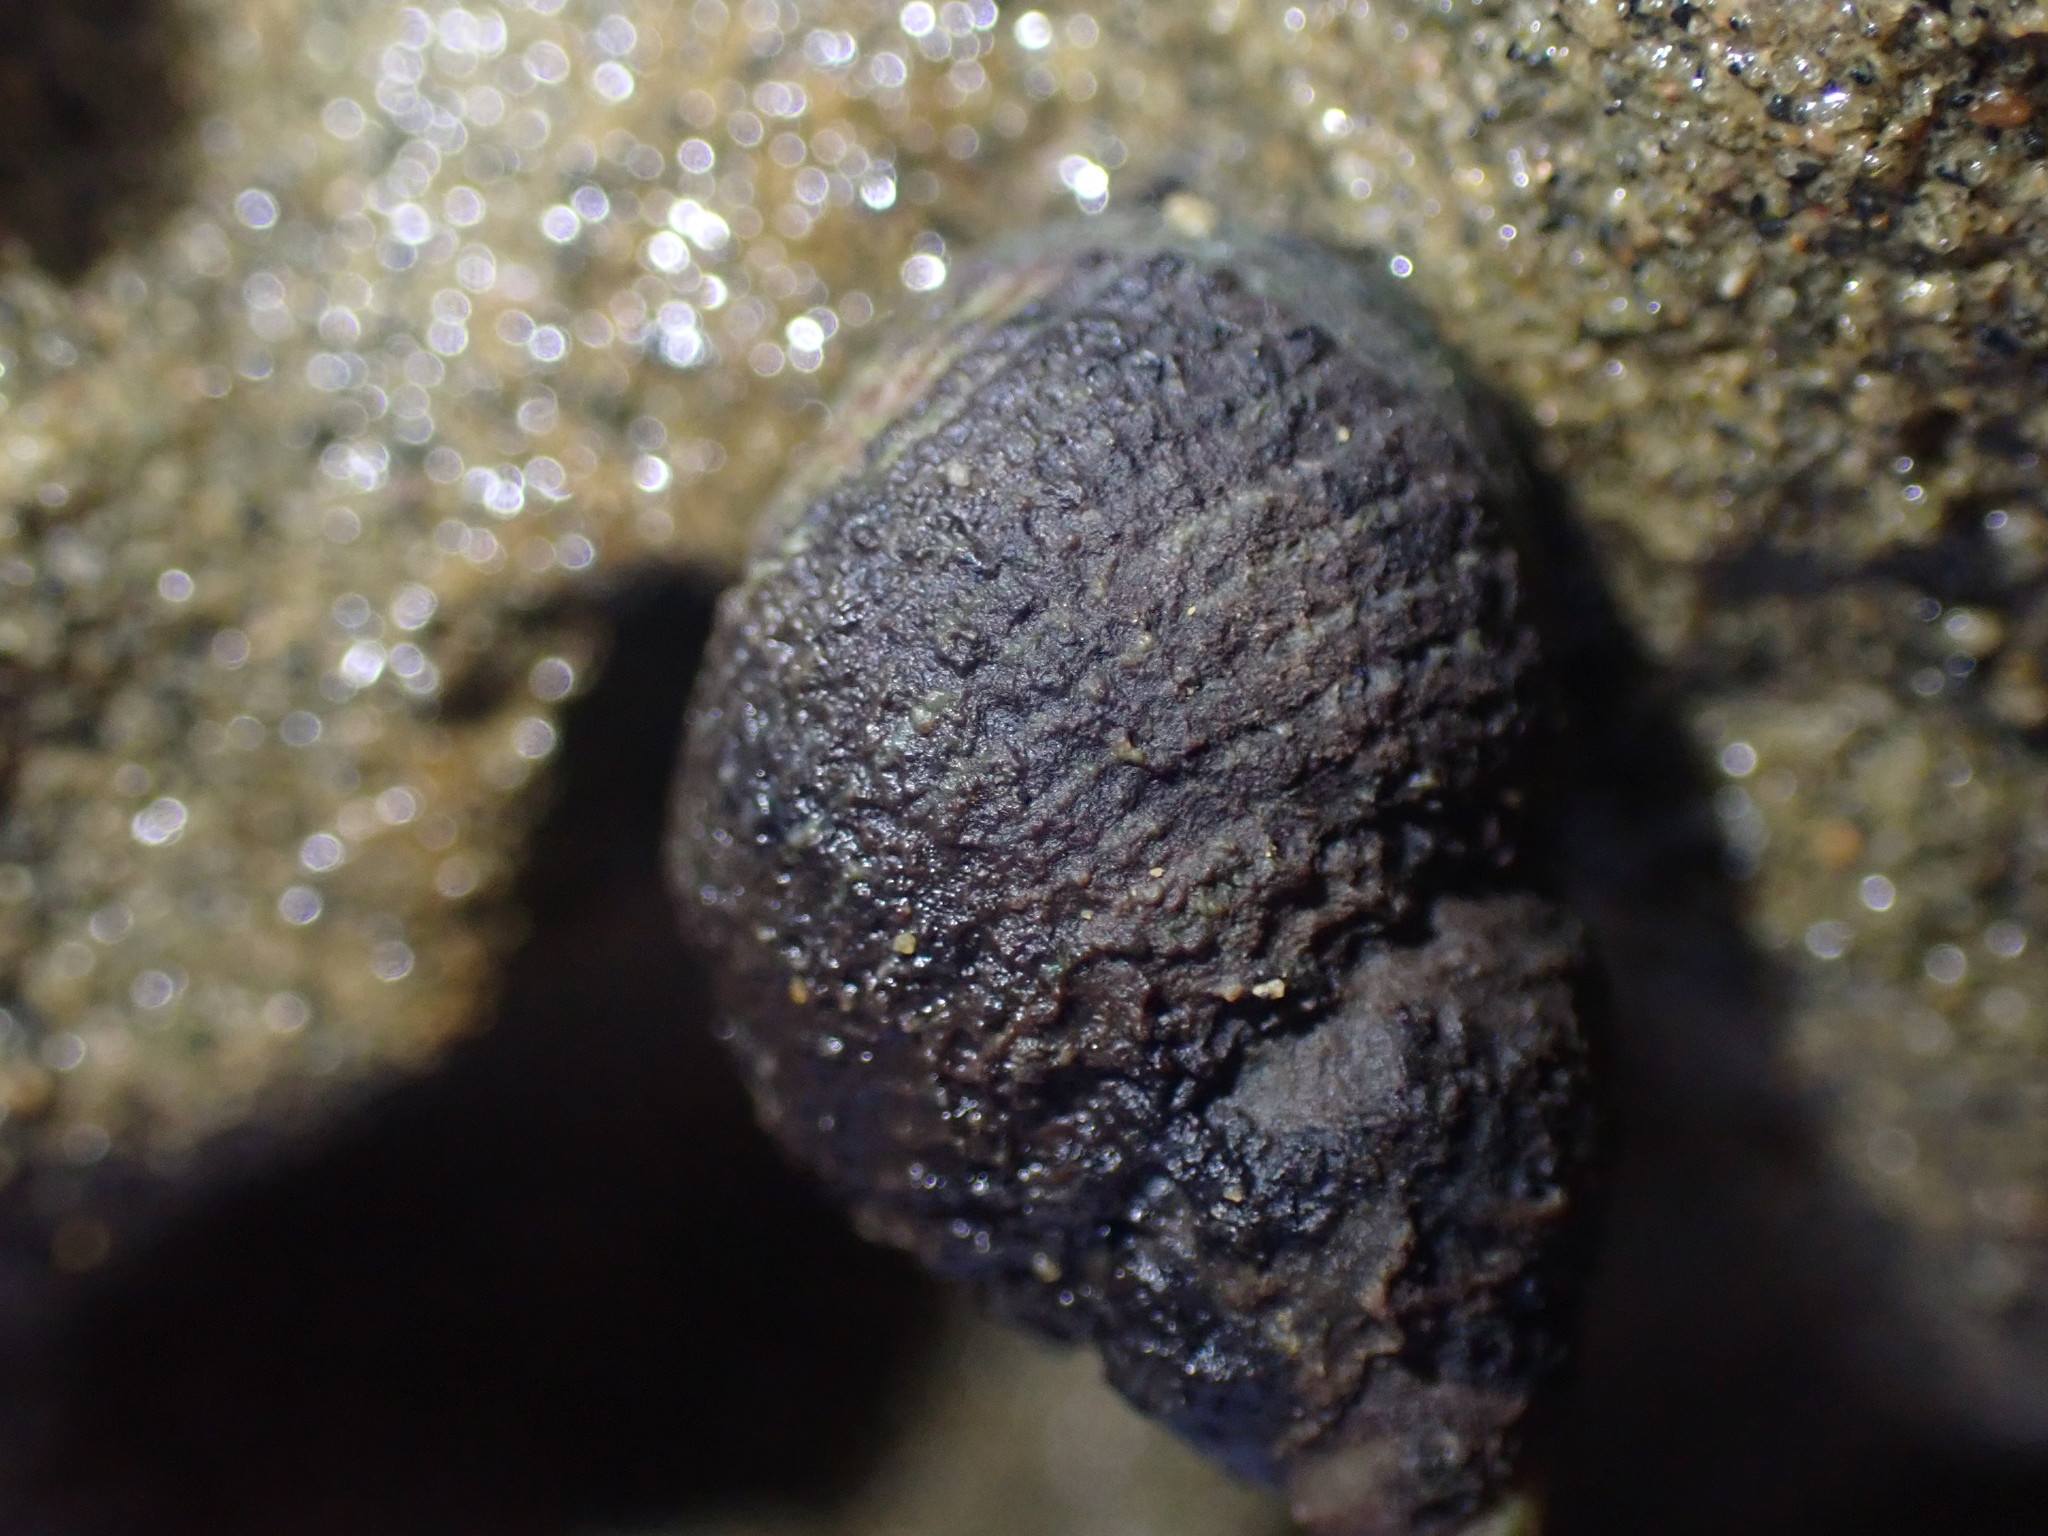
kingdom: Animalia
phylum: Mollusca
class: Gastropoda
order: Littorinimorpha
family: Littorinidae
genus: Austrolittorina
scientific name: Austrolittorina cincta
